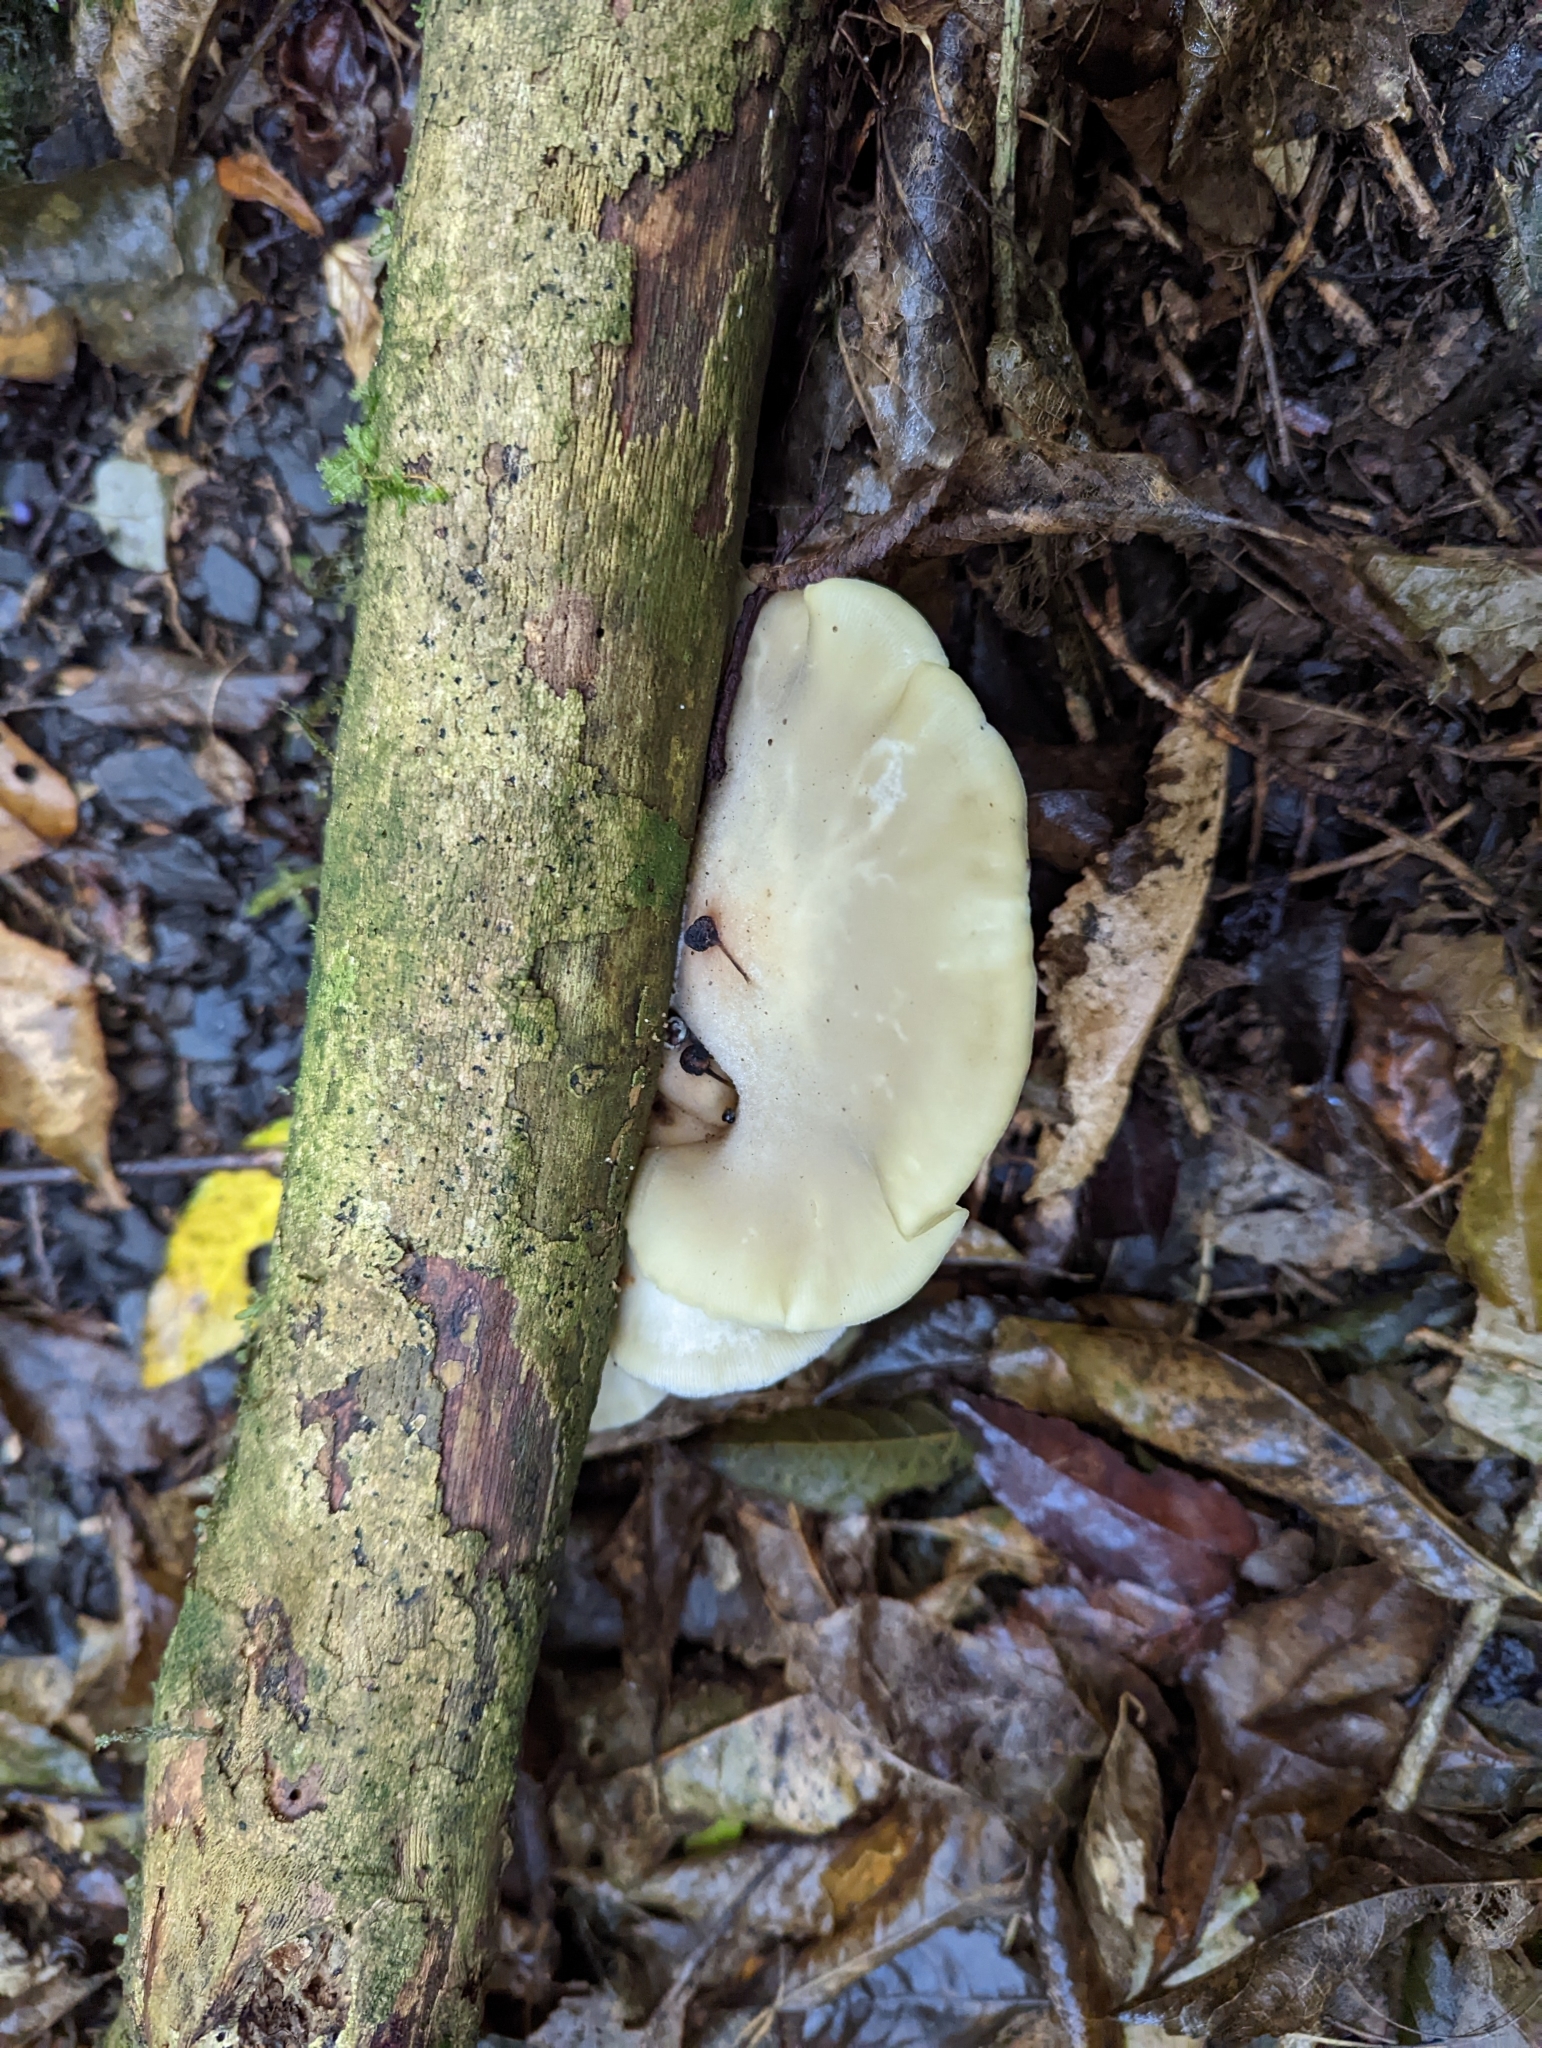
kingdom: Fungi
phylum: Basidiomycota
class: Agaricomycetes
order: Agaricales
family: Tricholomataceae
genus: Conchomyces
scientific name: Conchomyces bursiformis
